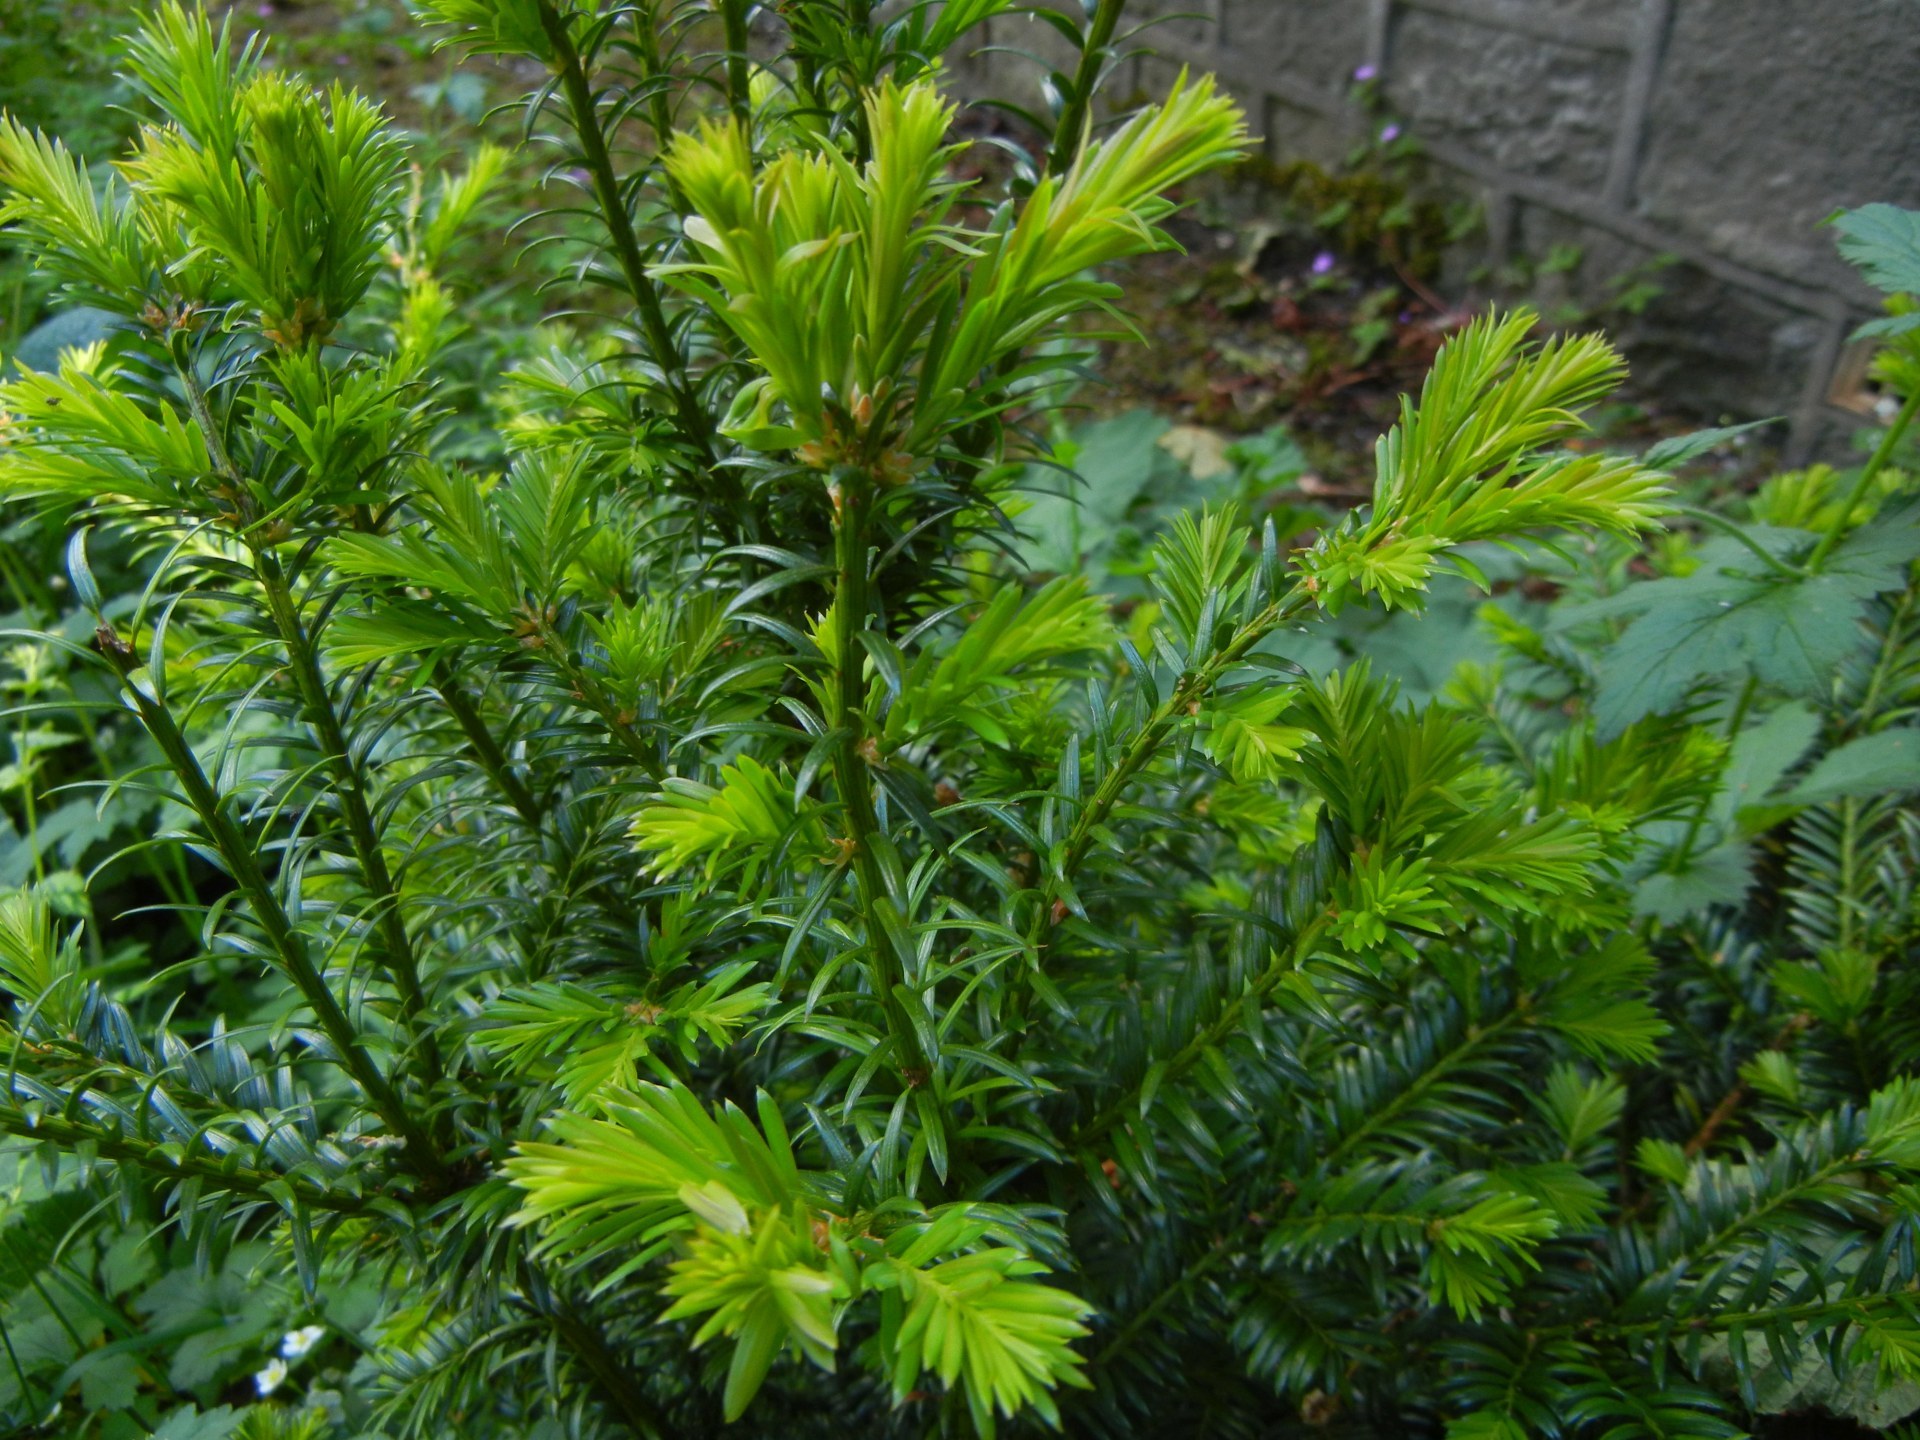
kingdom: Plantae
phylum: Tracheophyta
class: Pinopsida
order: Pinales
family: Taxaceae
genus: Taxus
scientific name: Taxus baccata
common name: Yew
